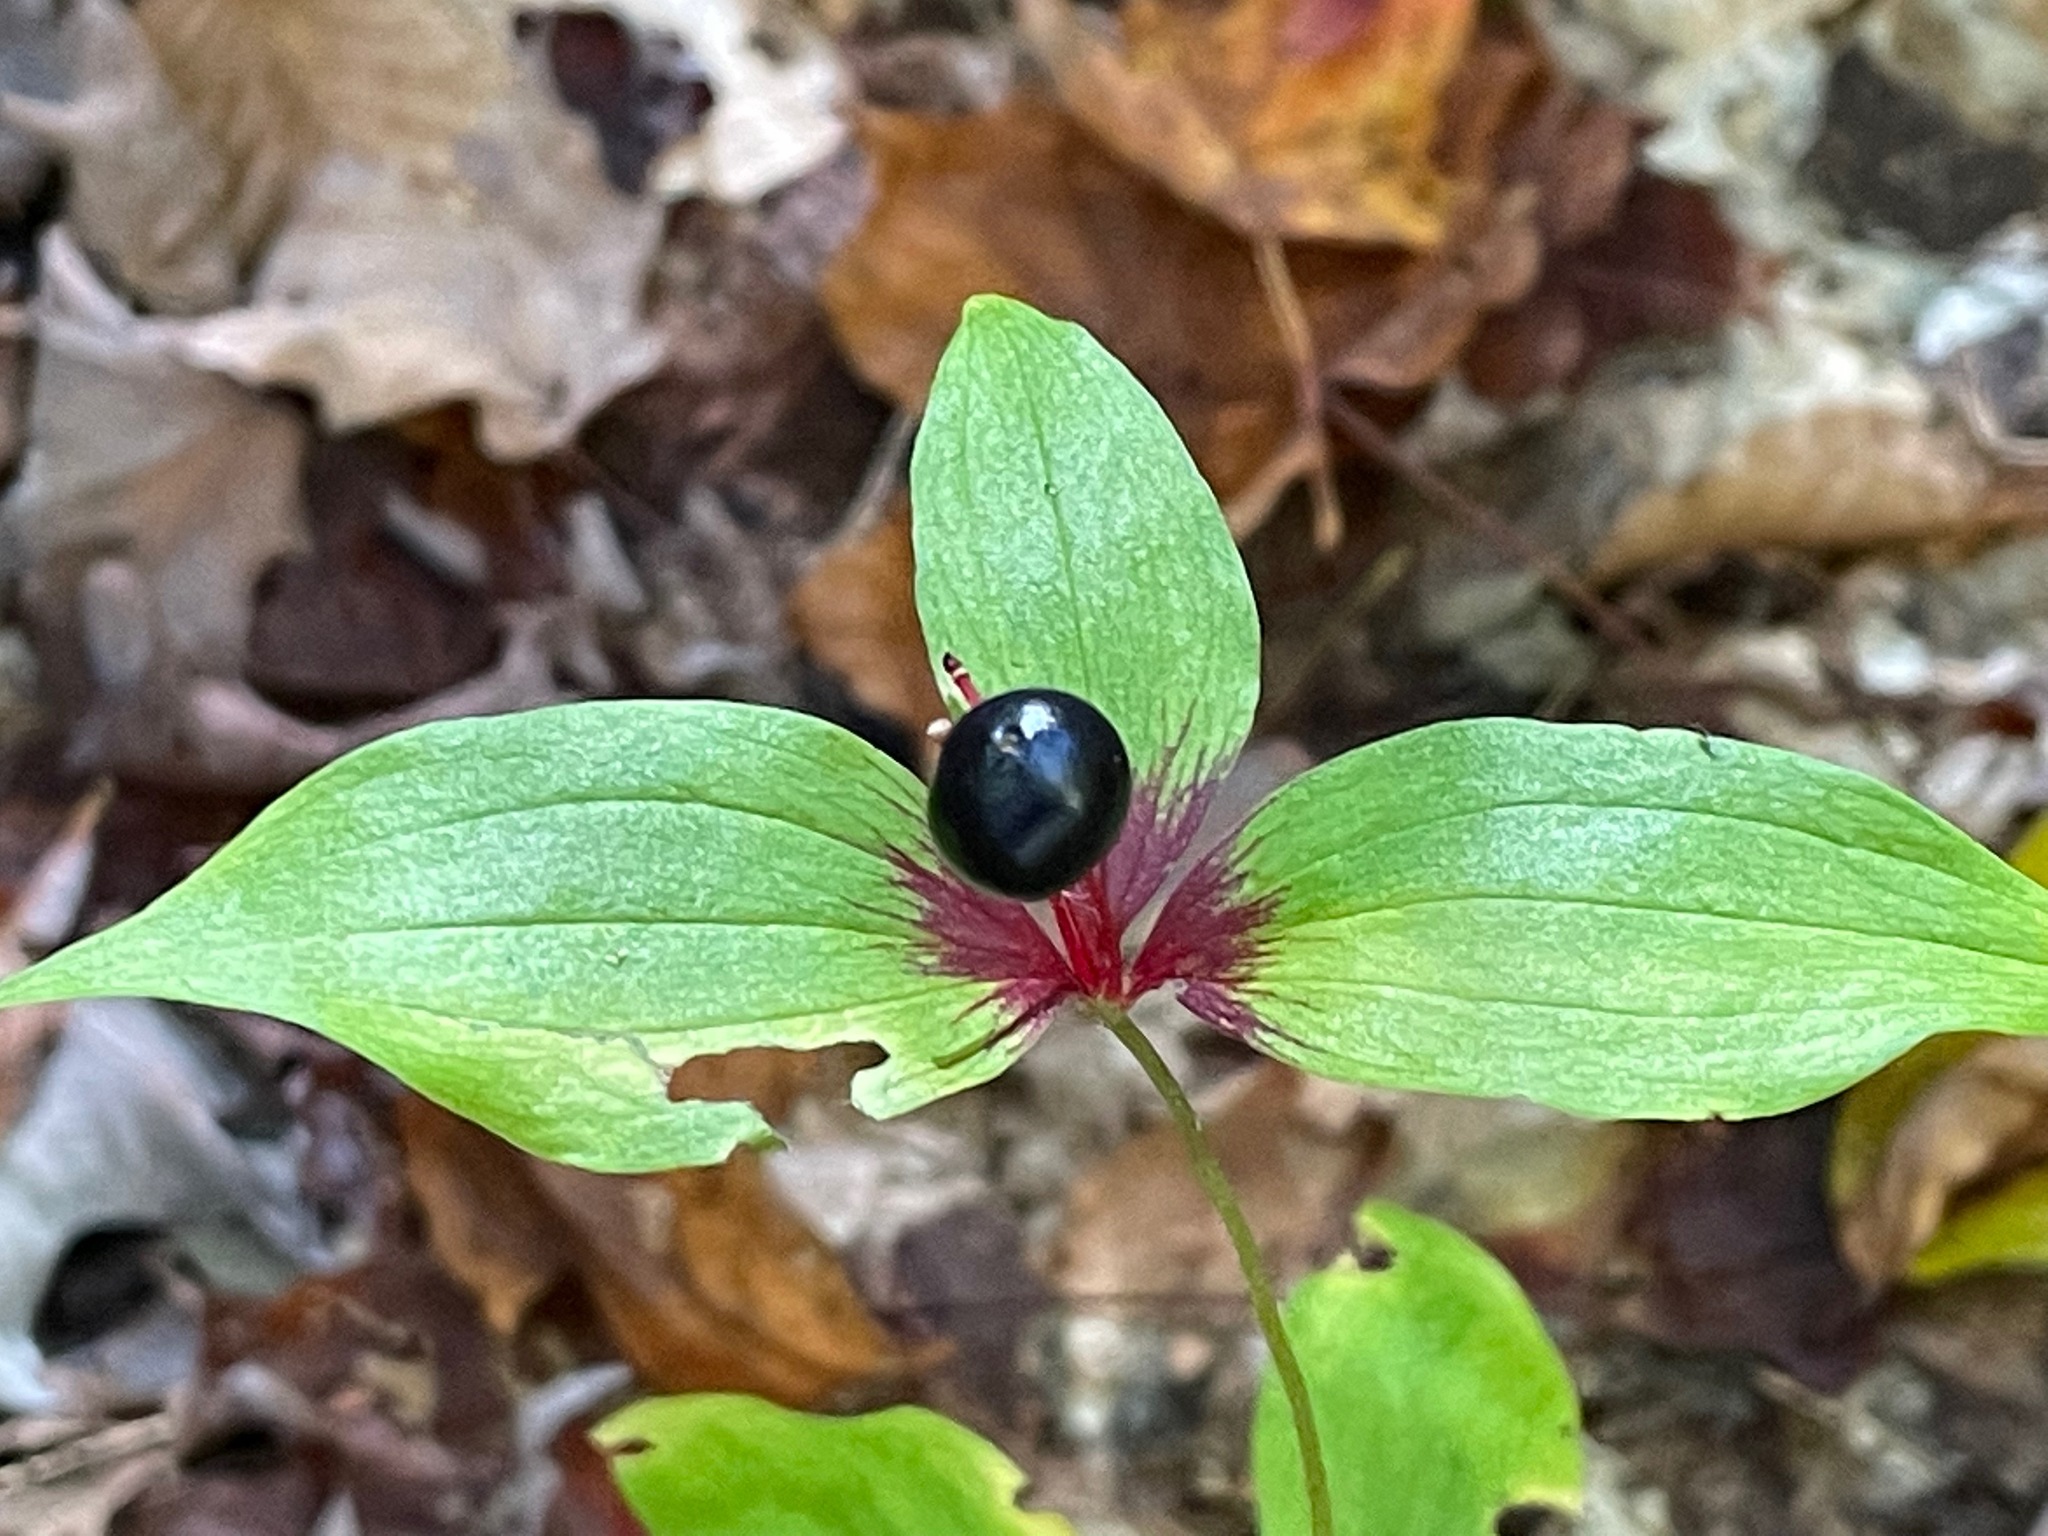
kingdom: Plantae
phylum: Tracheophyta
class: Liliopsida
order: Liliales
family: Liliaceae
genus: Medeola
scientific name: Medeola virginiana
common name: Indian cucumber-root
